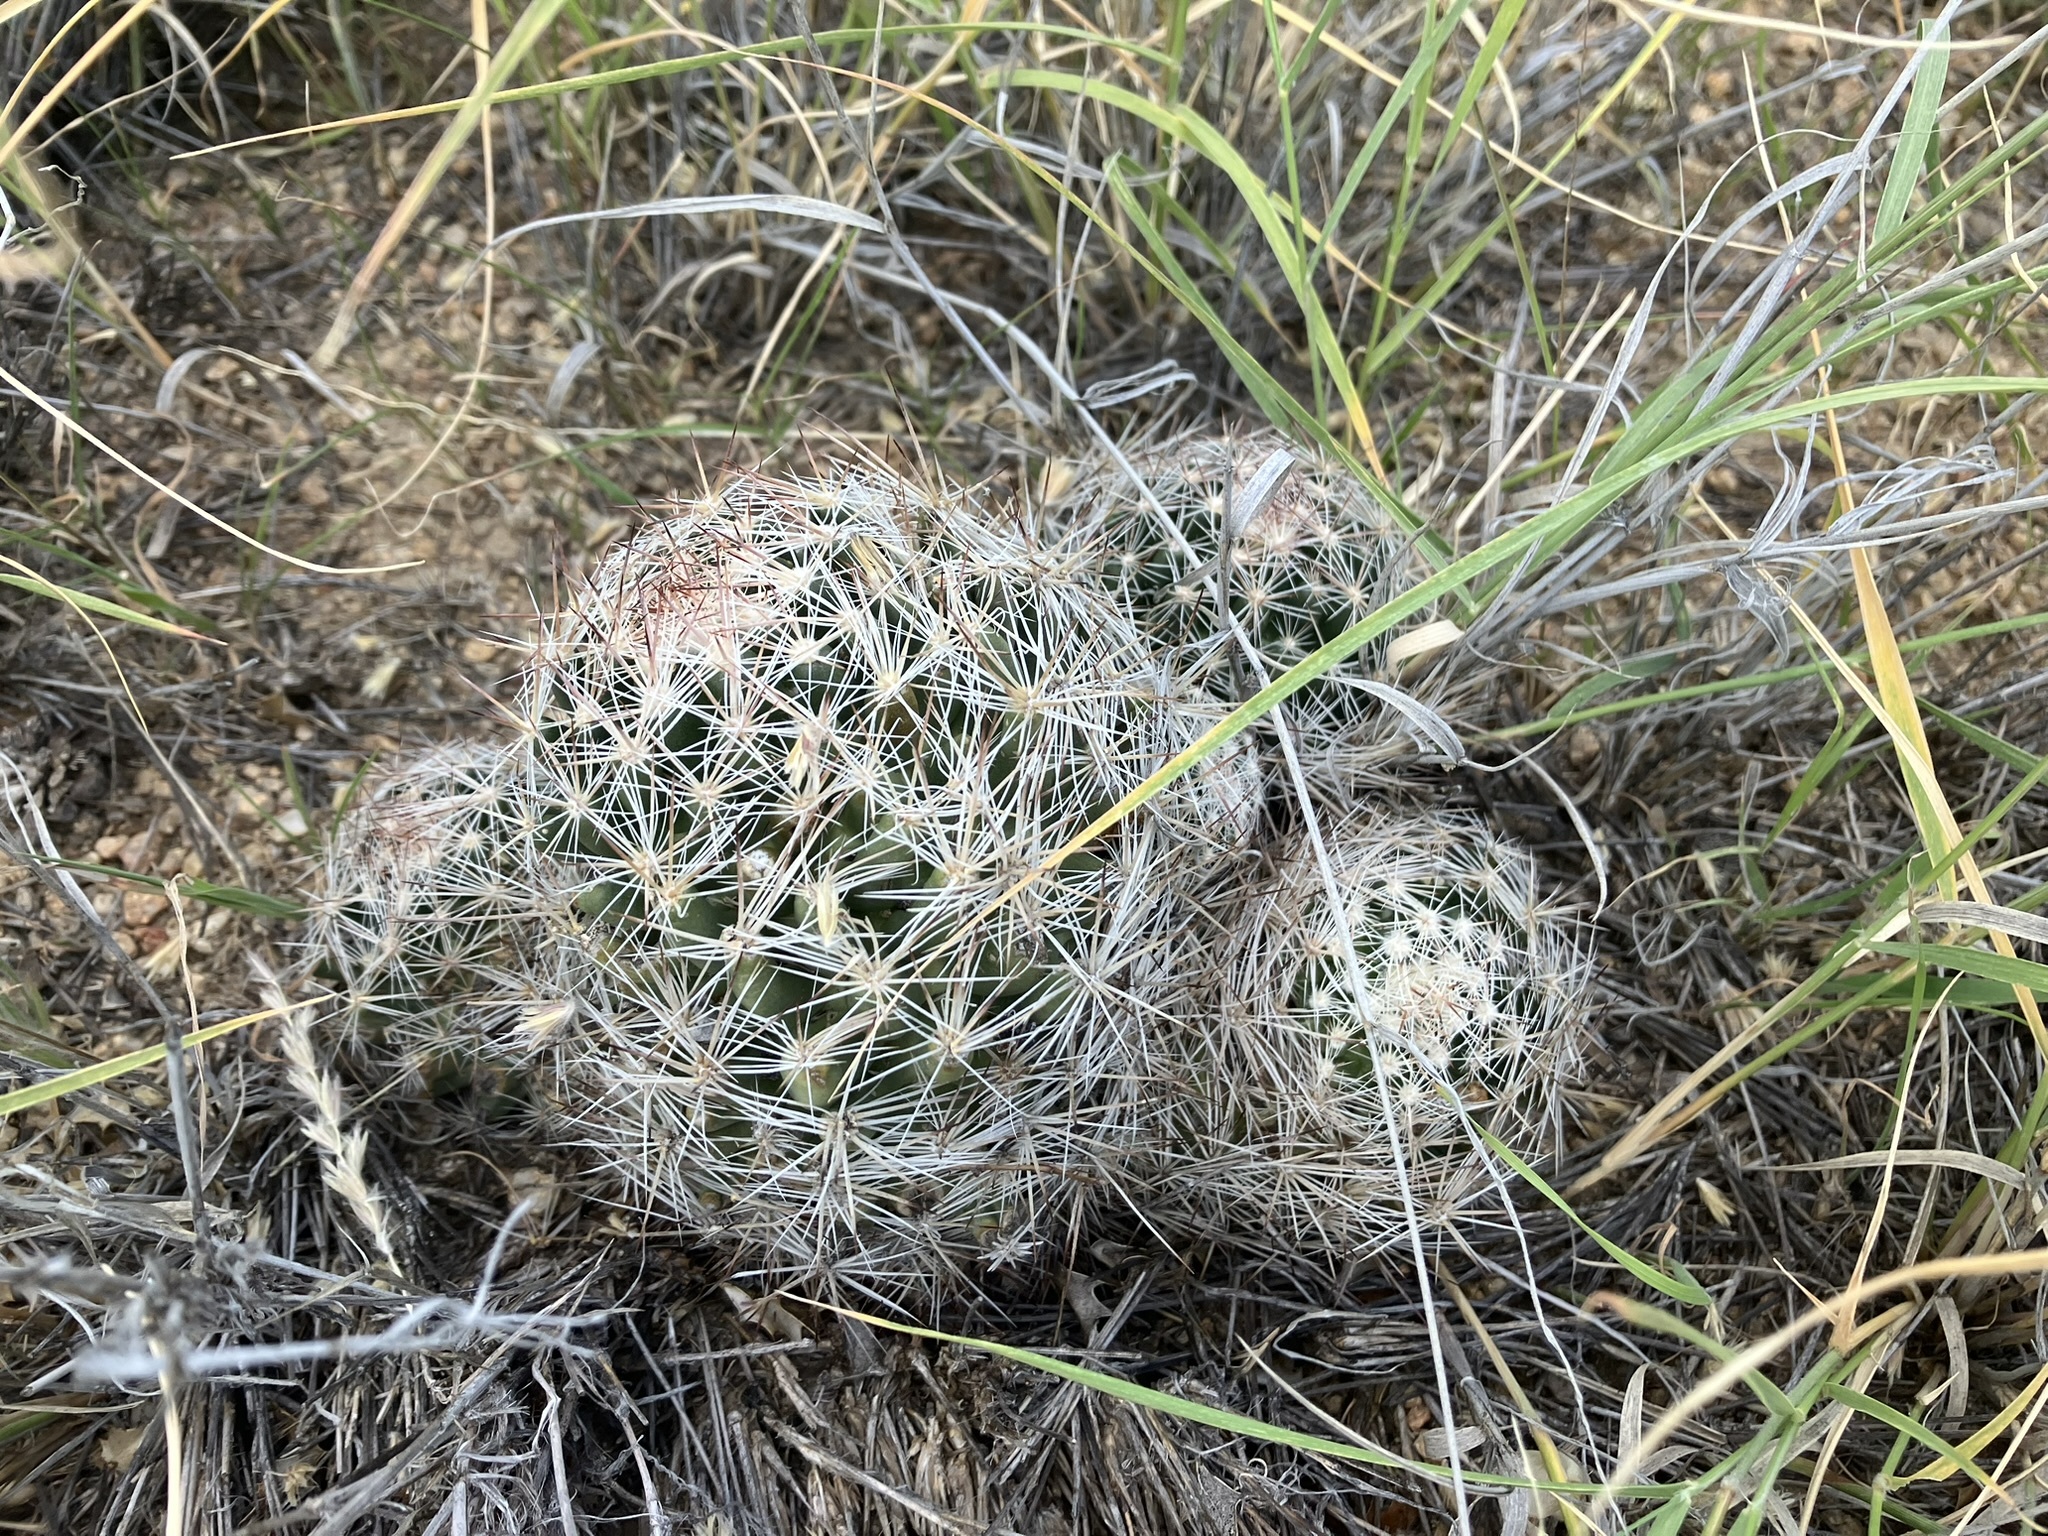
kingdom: Plantae
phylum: Tracheophyta
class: Magnoliopsida
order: Caryophyllales
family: Cactaceae
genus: Pelecyphora
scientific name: Pelecyphora vivipara
